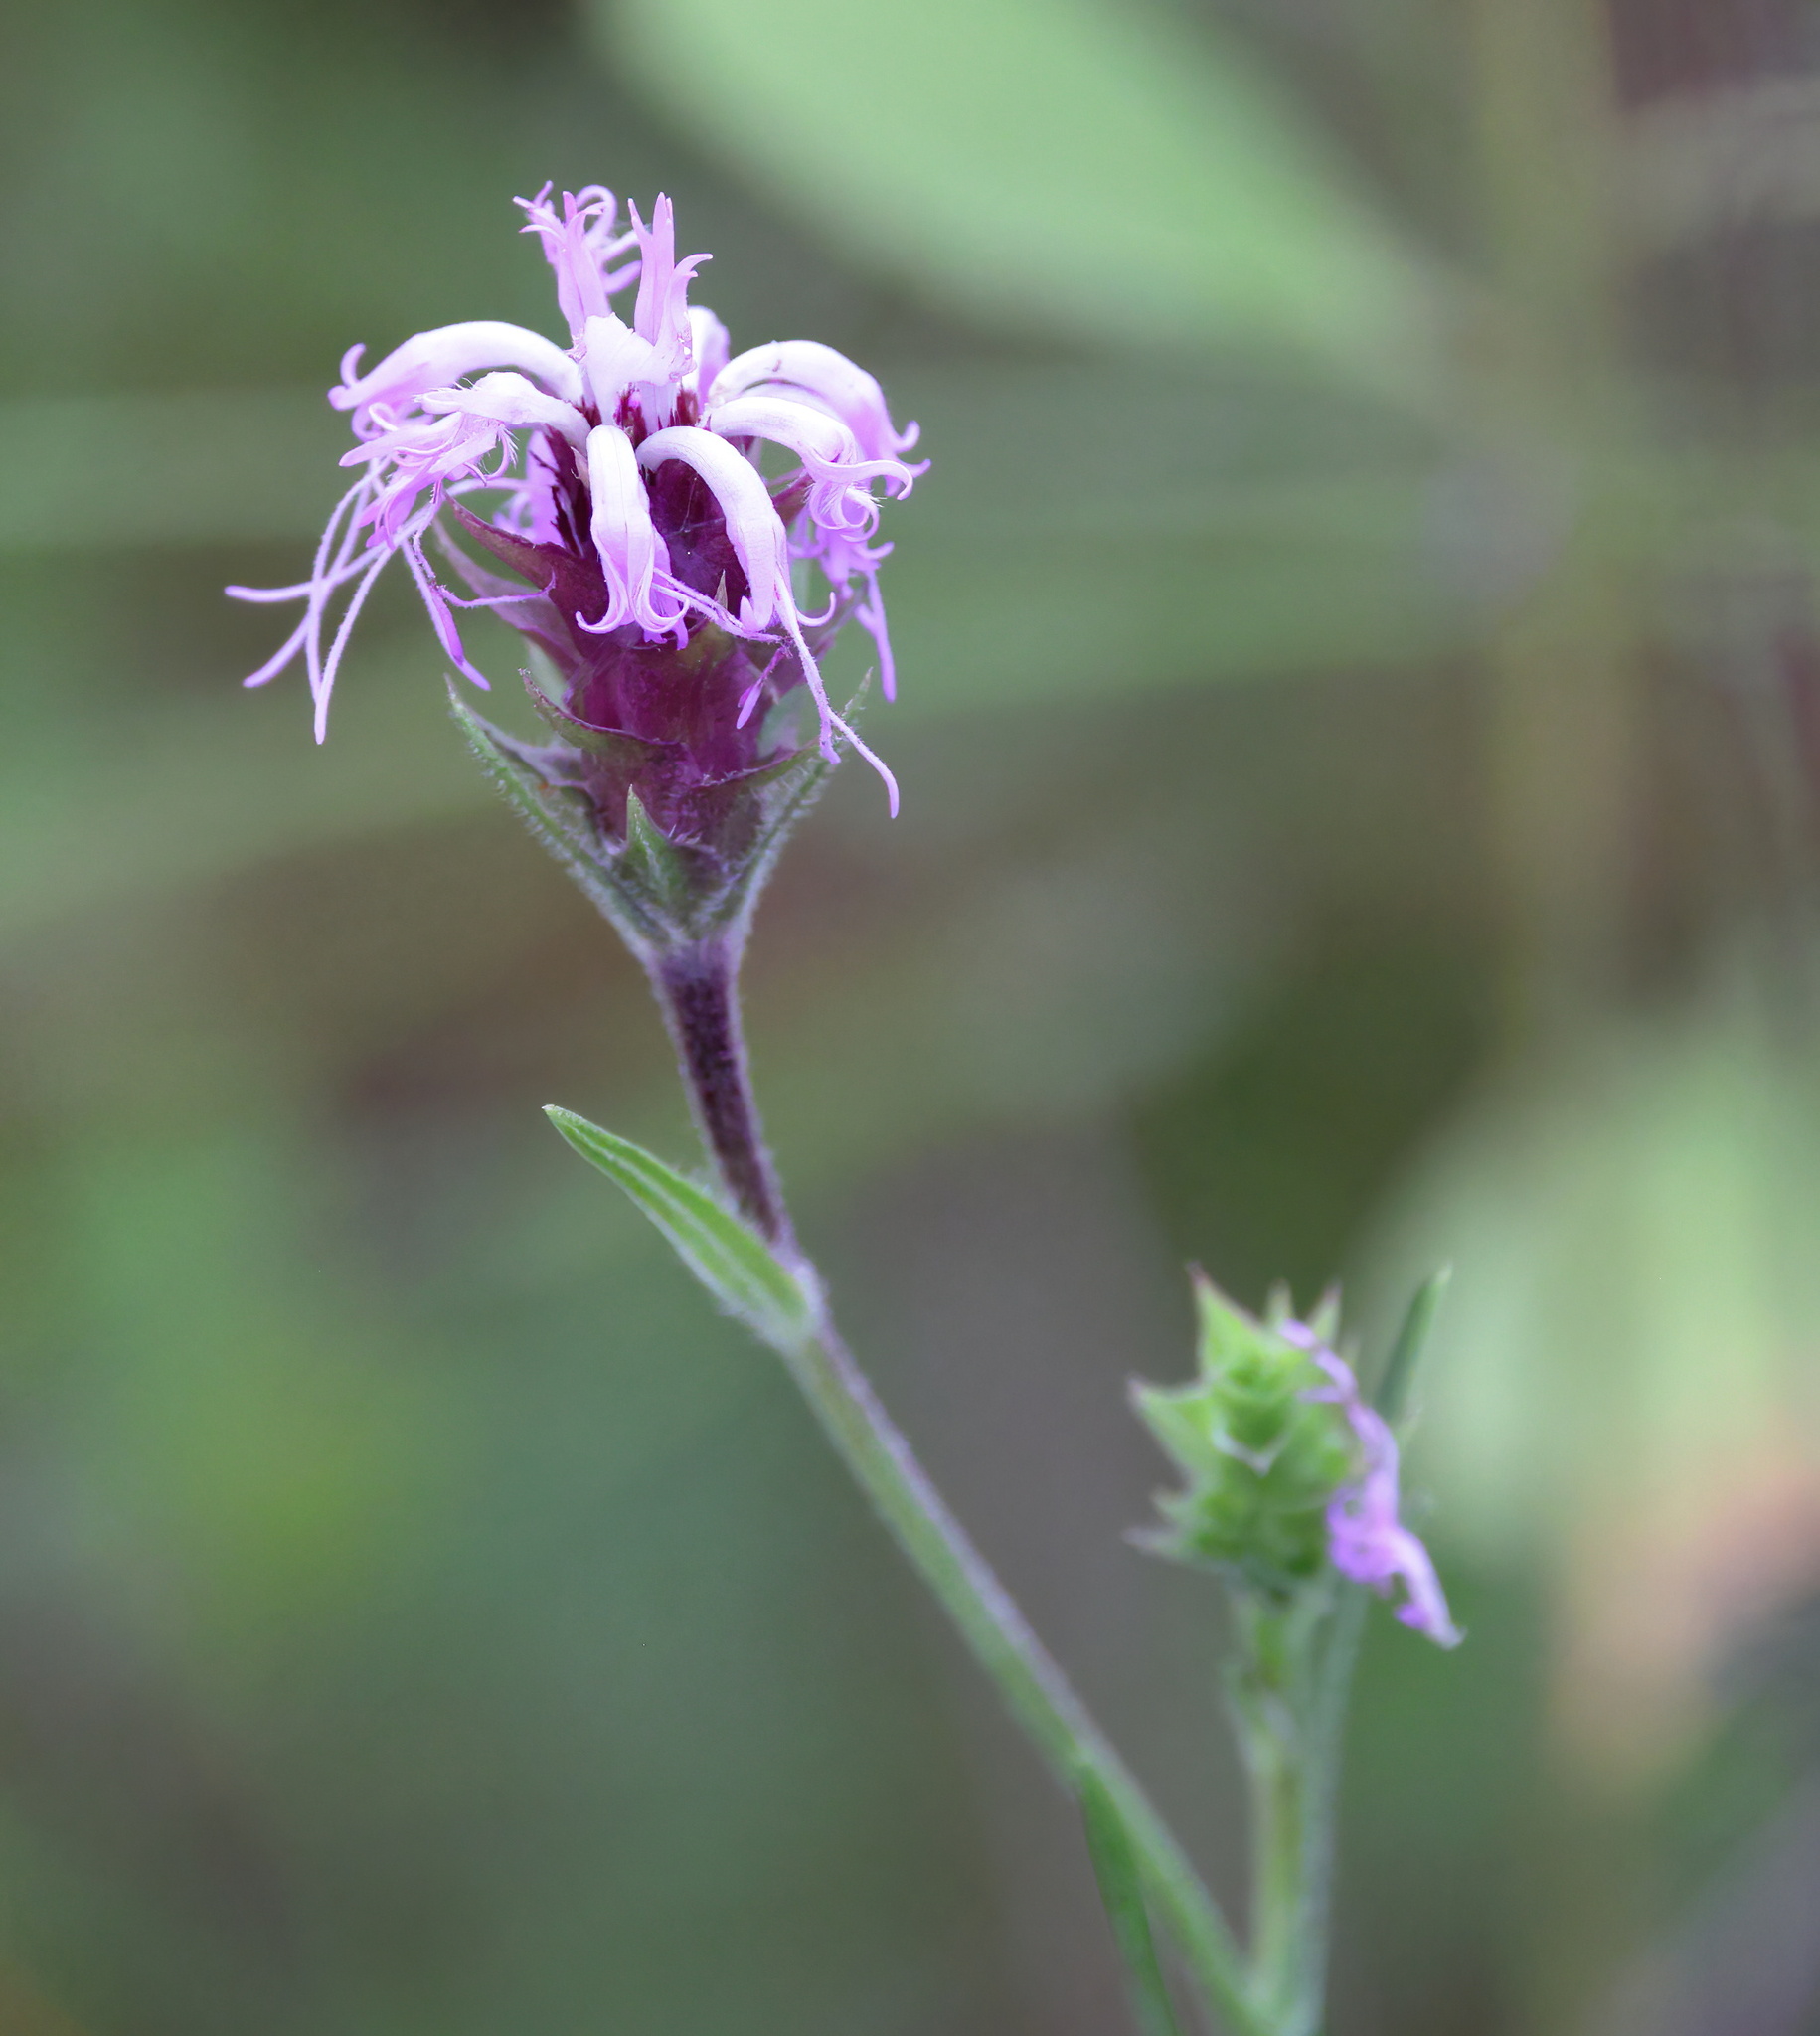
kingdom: Plantae
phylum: Tracheophyta
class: Magnoliopsida
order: Asterales
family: Asteraceae
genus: Liatris
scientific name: Liatris squarrosa
